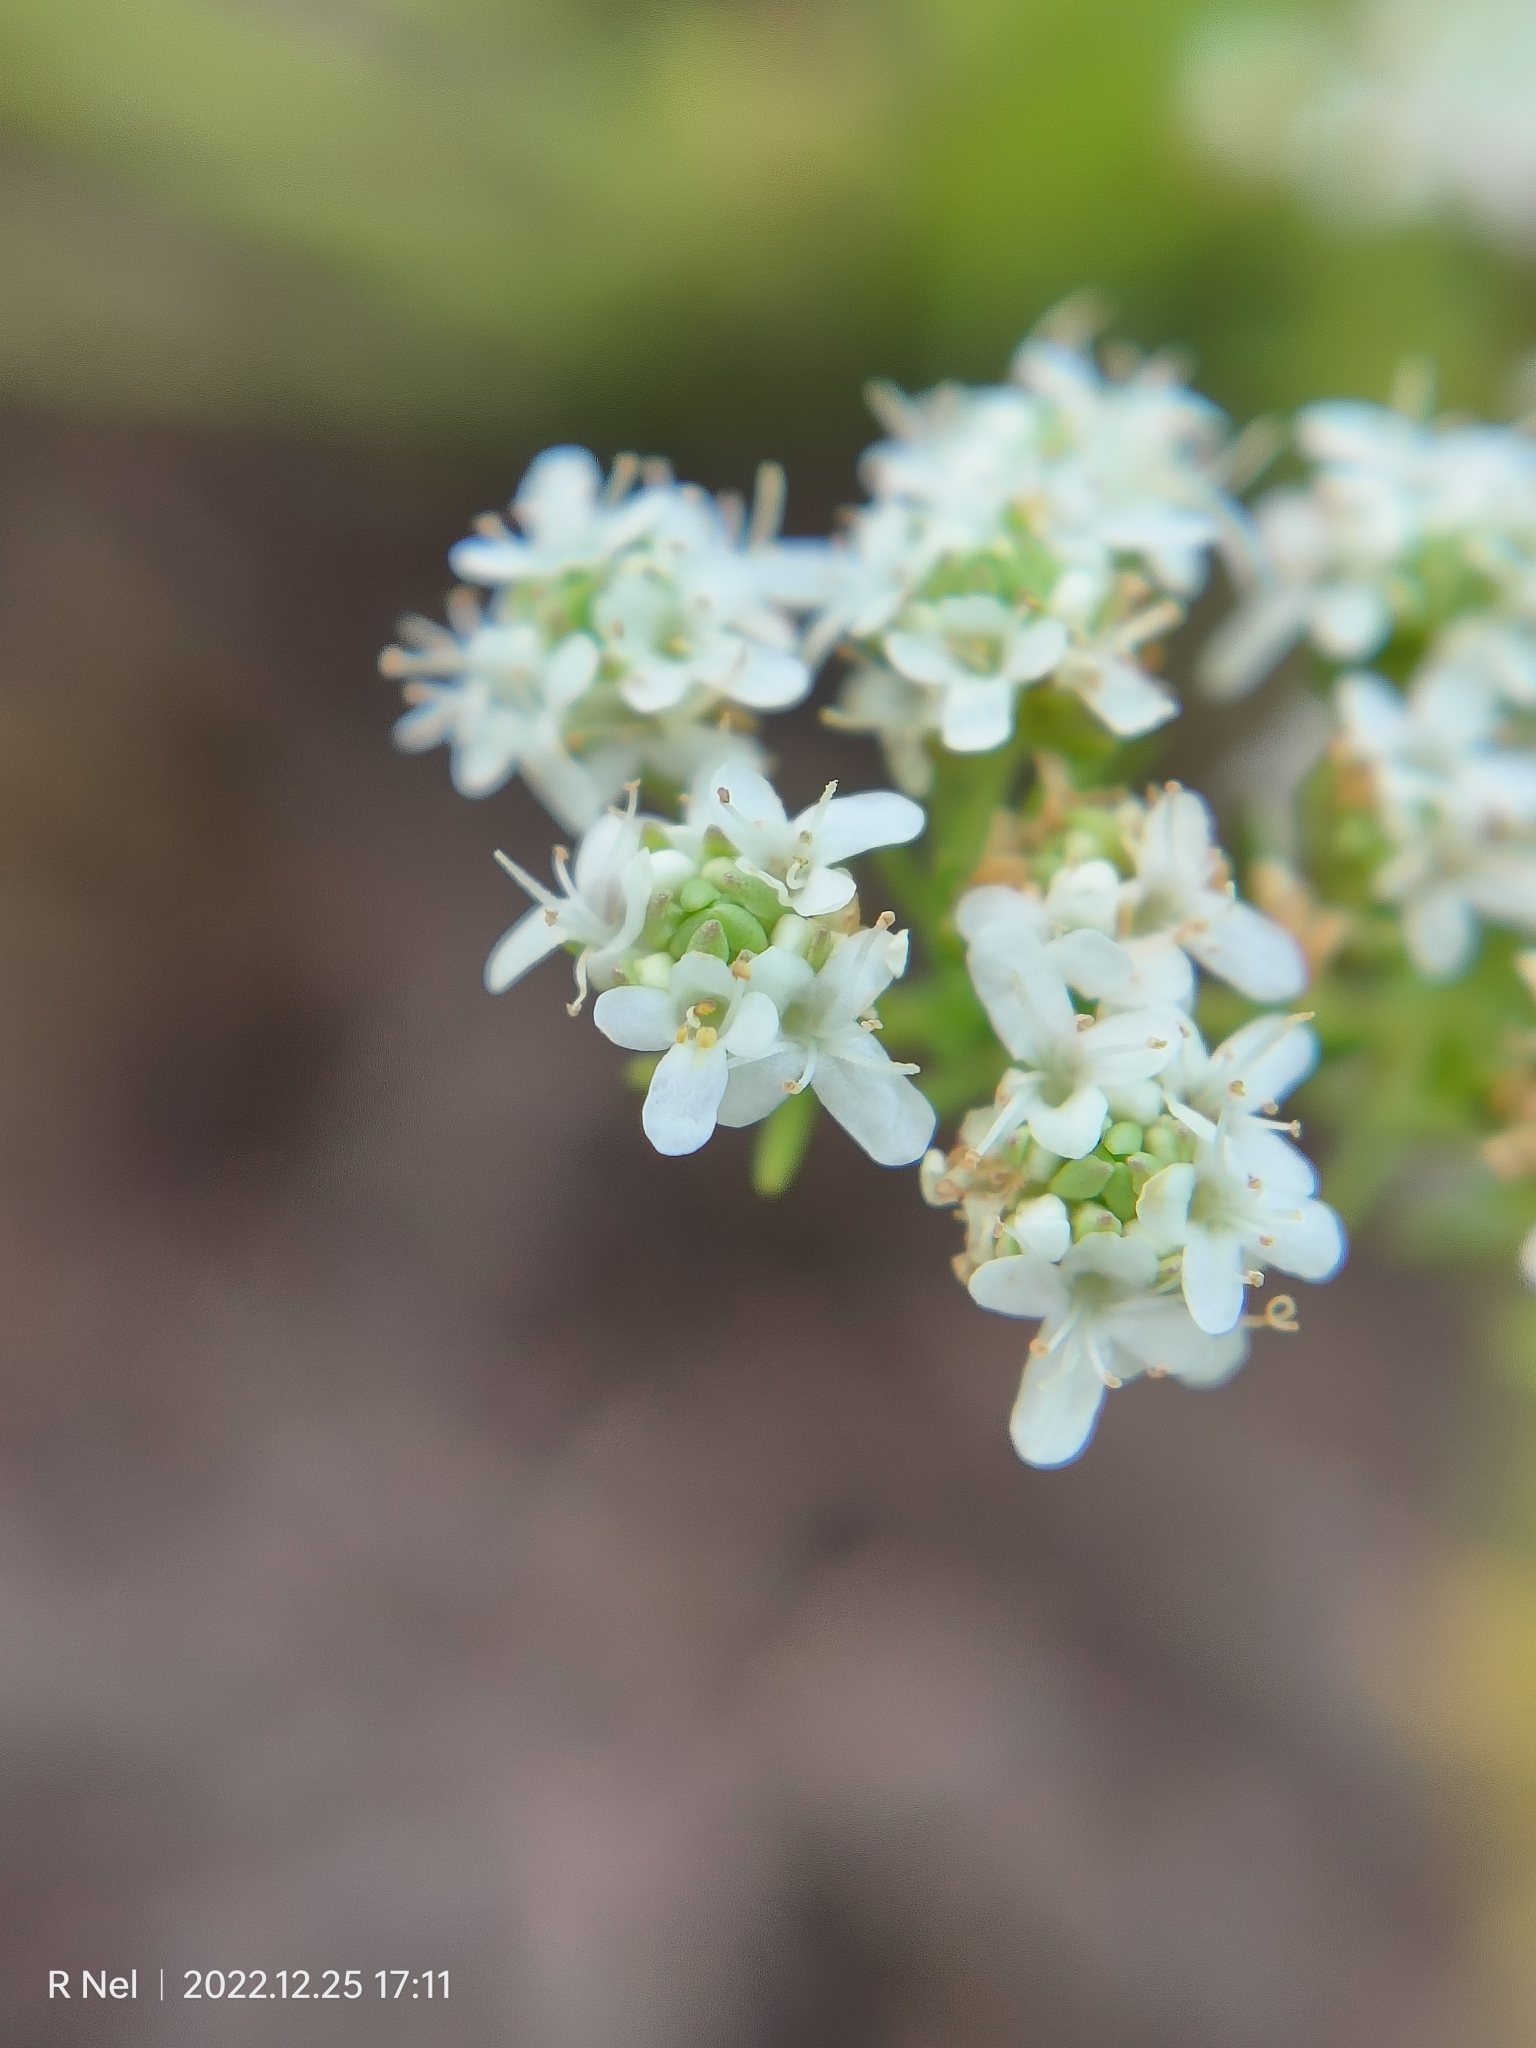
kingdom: Plantae
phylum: Tracheophyta
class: Magnoliopsida
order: Lamiales
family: Scrophulariaceae
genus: Selago
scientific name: Selago densiflora
